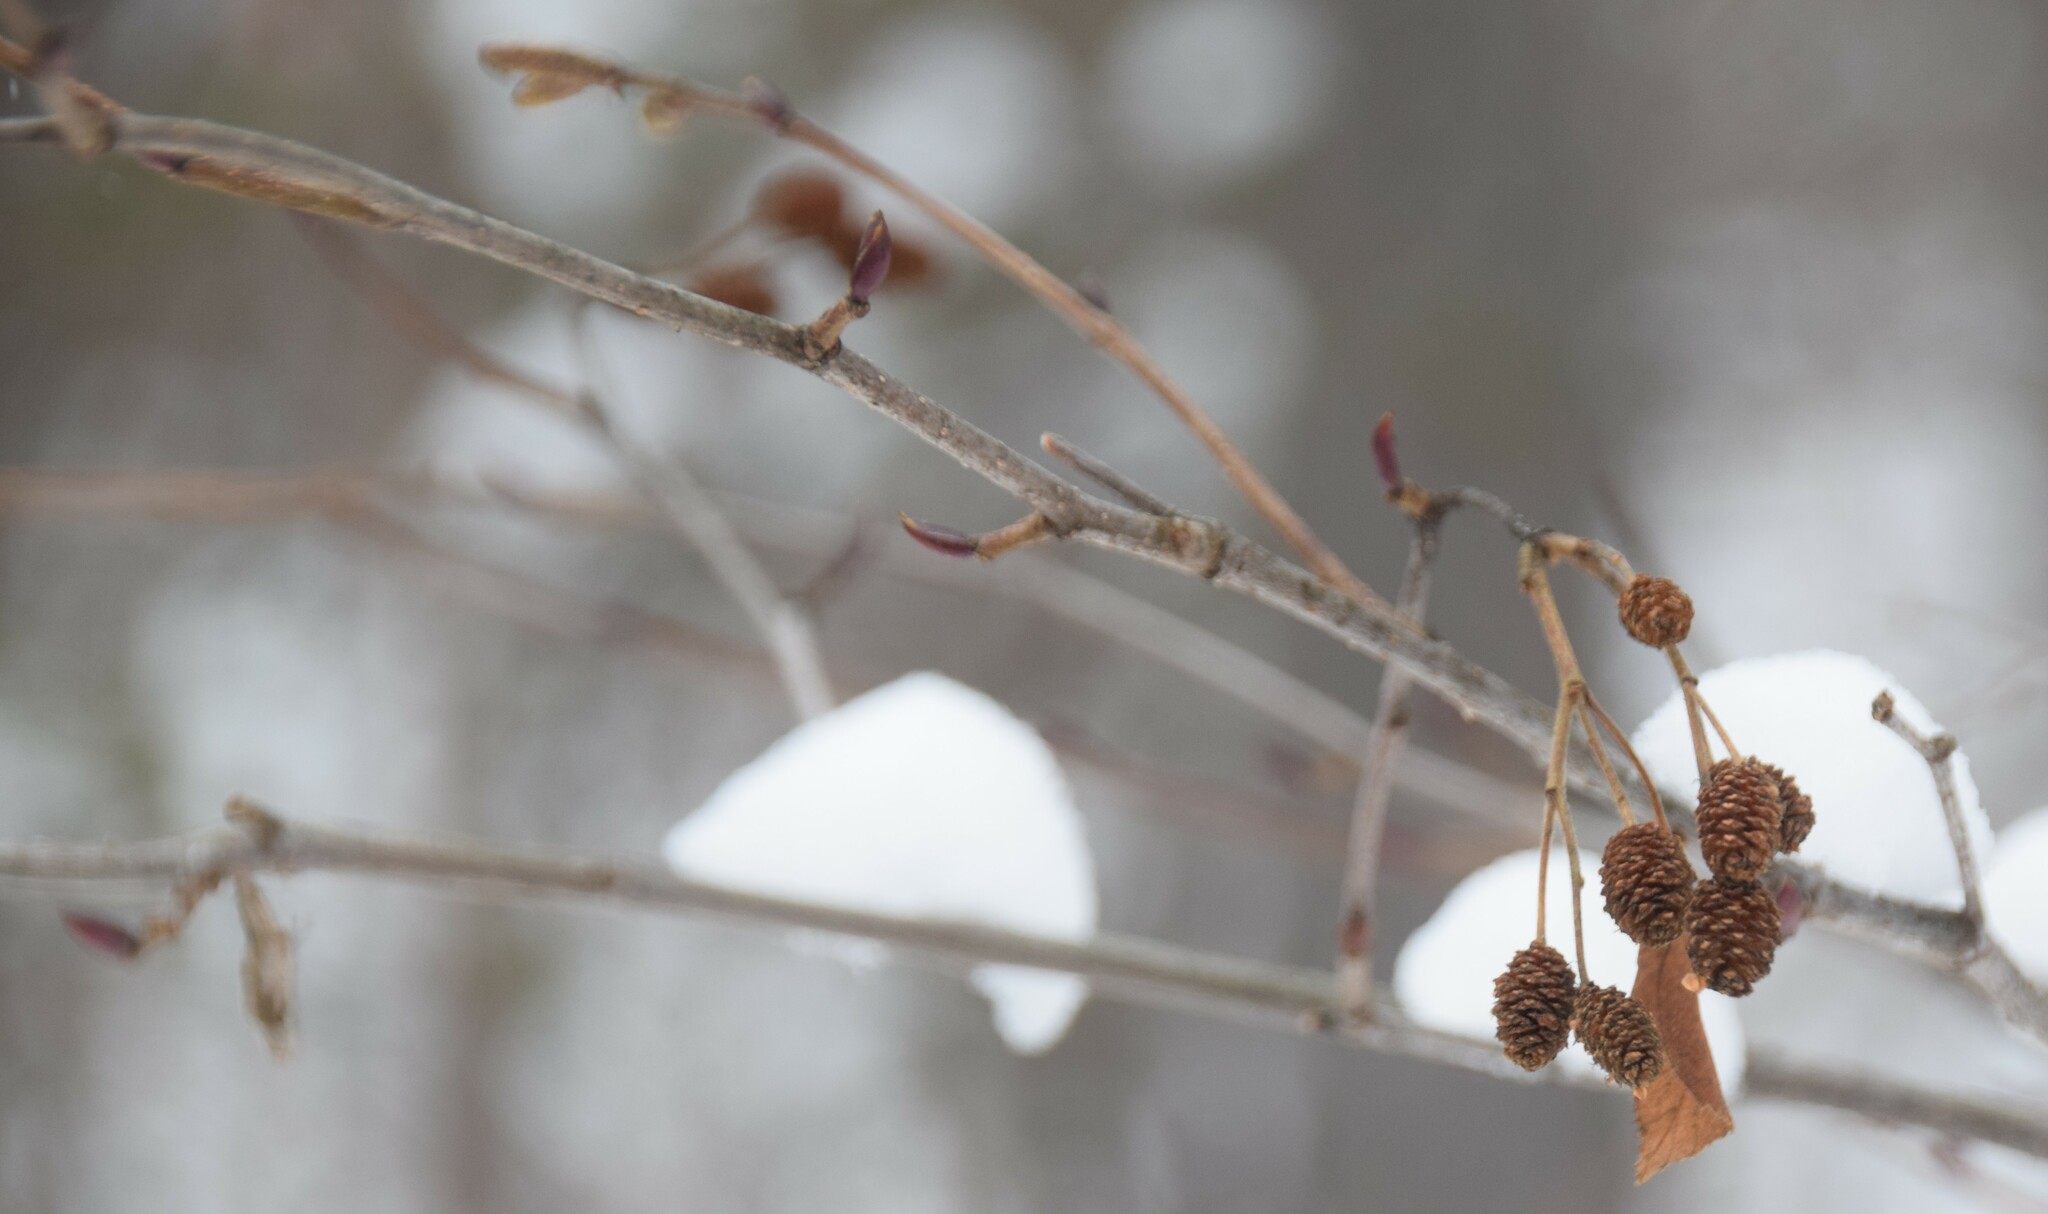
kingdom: Plantae
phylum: Tracheophyta
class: Magnoliopsida
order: Fagales
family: Betulaceae
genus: Alnus
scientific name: Alnus alnobetula
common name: Green alder
